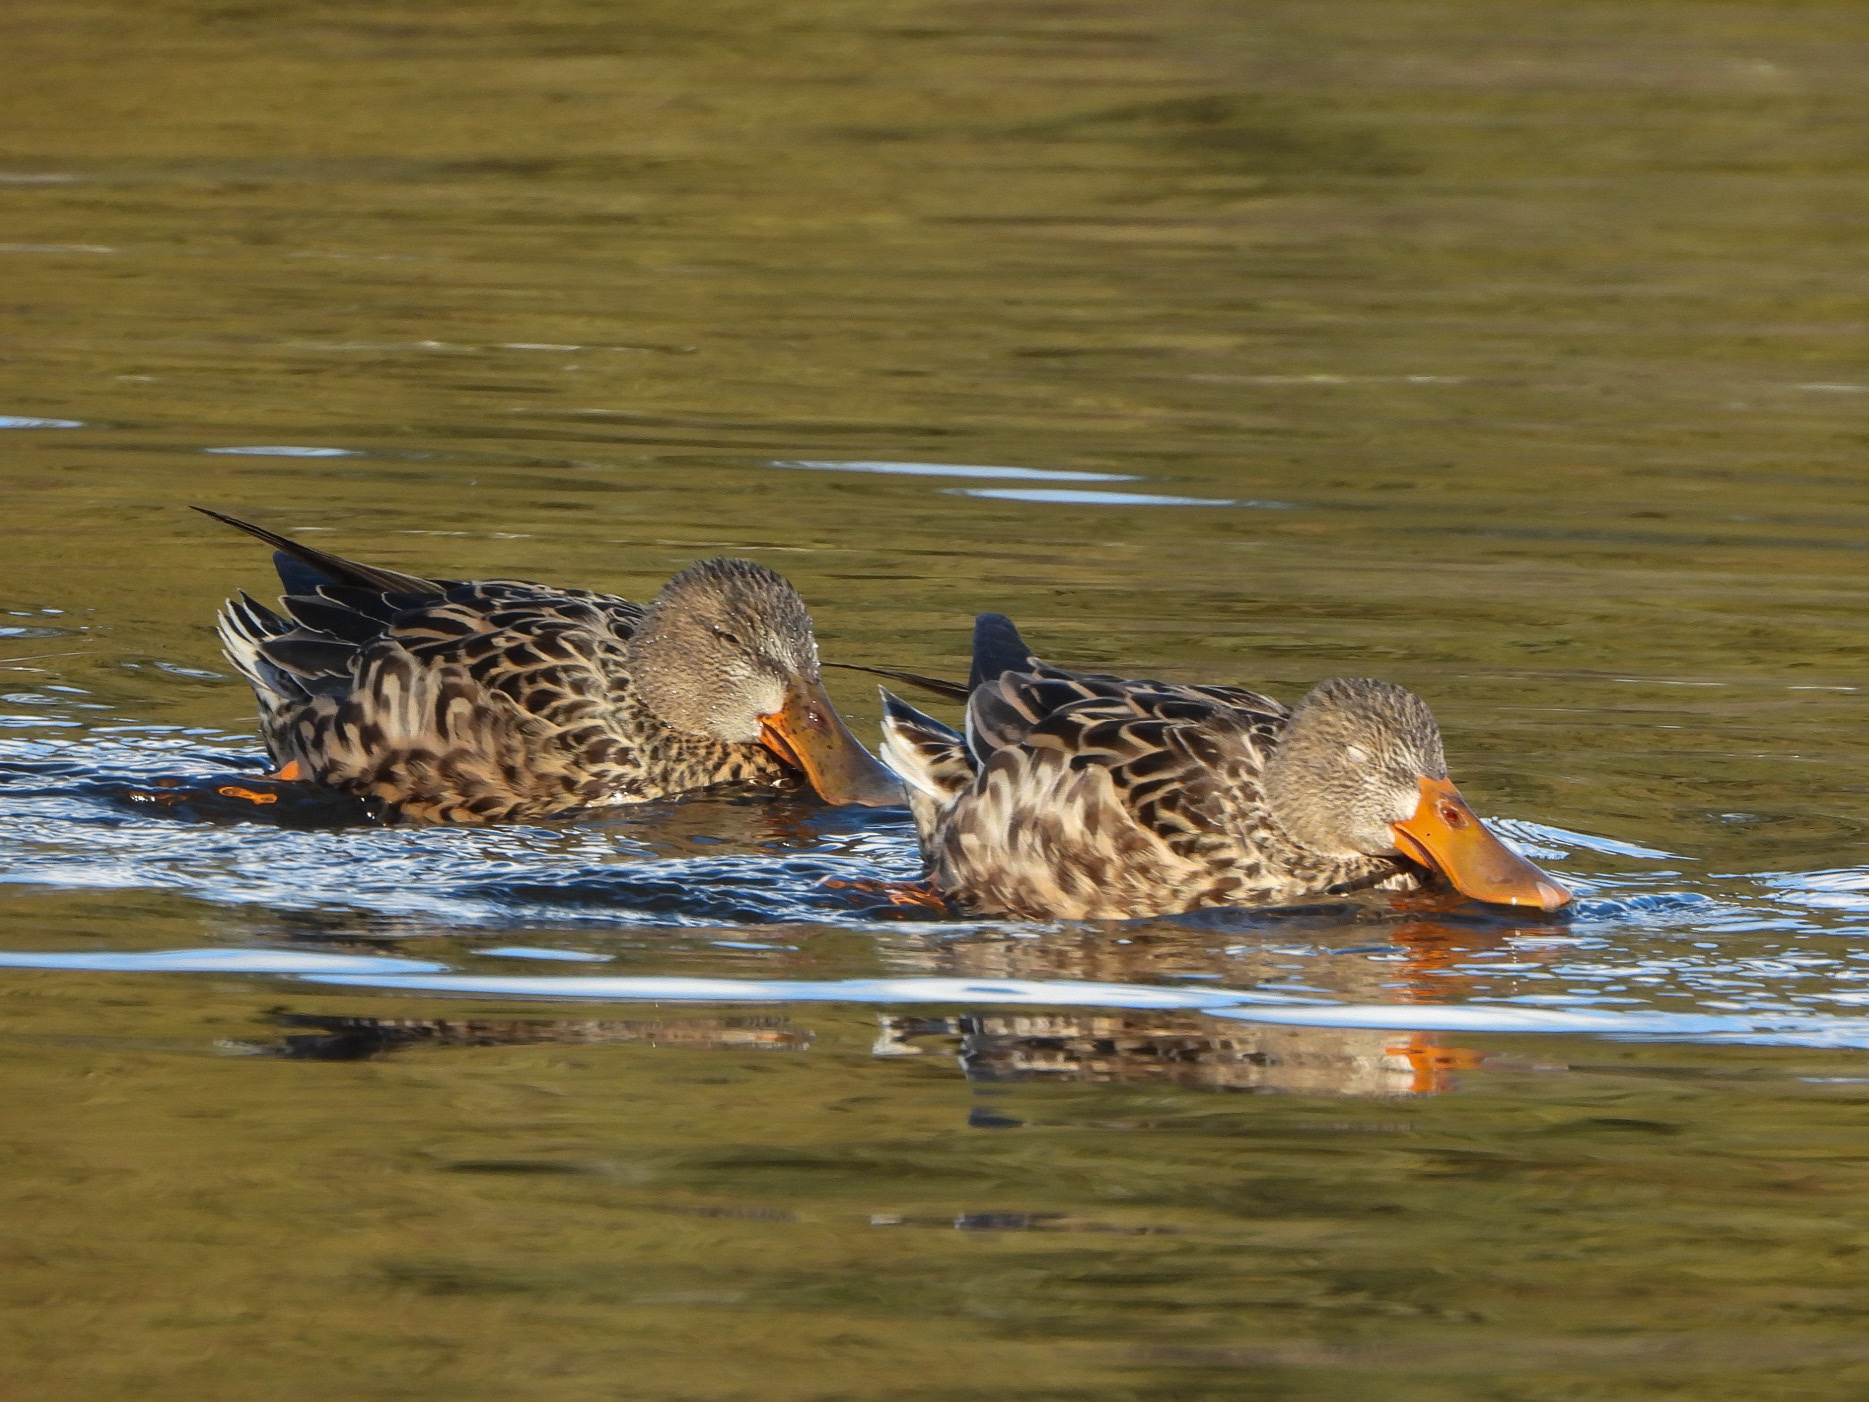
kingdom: Animalia
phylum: Chordata
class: Aves
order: Anseriformes
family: Anatidae
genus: Spatula
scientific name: Spatula clypeata
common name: Northern shoveler
